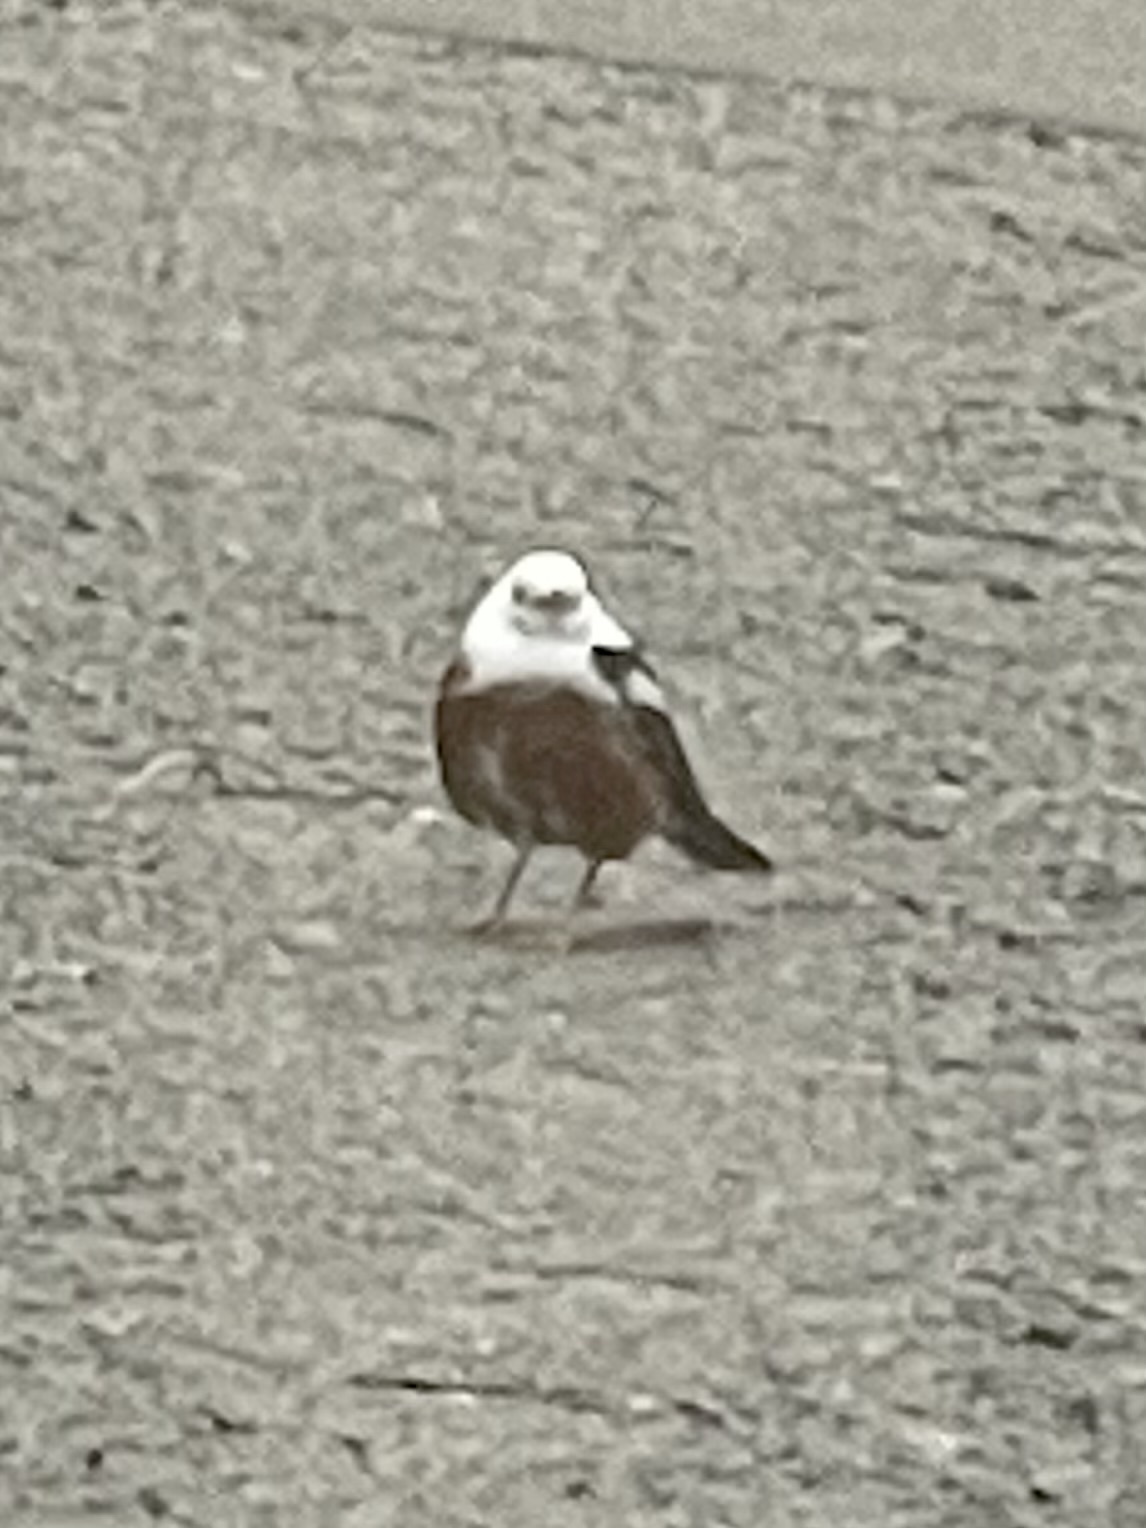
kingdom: Animalia
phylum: Chordata
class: Aves
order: Passeriformes
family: Turdidae
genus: Turdus
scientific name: Turdus migratorius
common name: American robin
